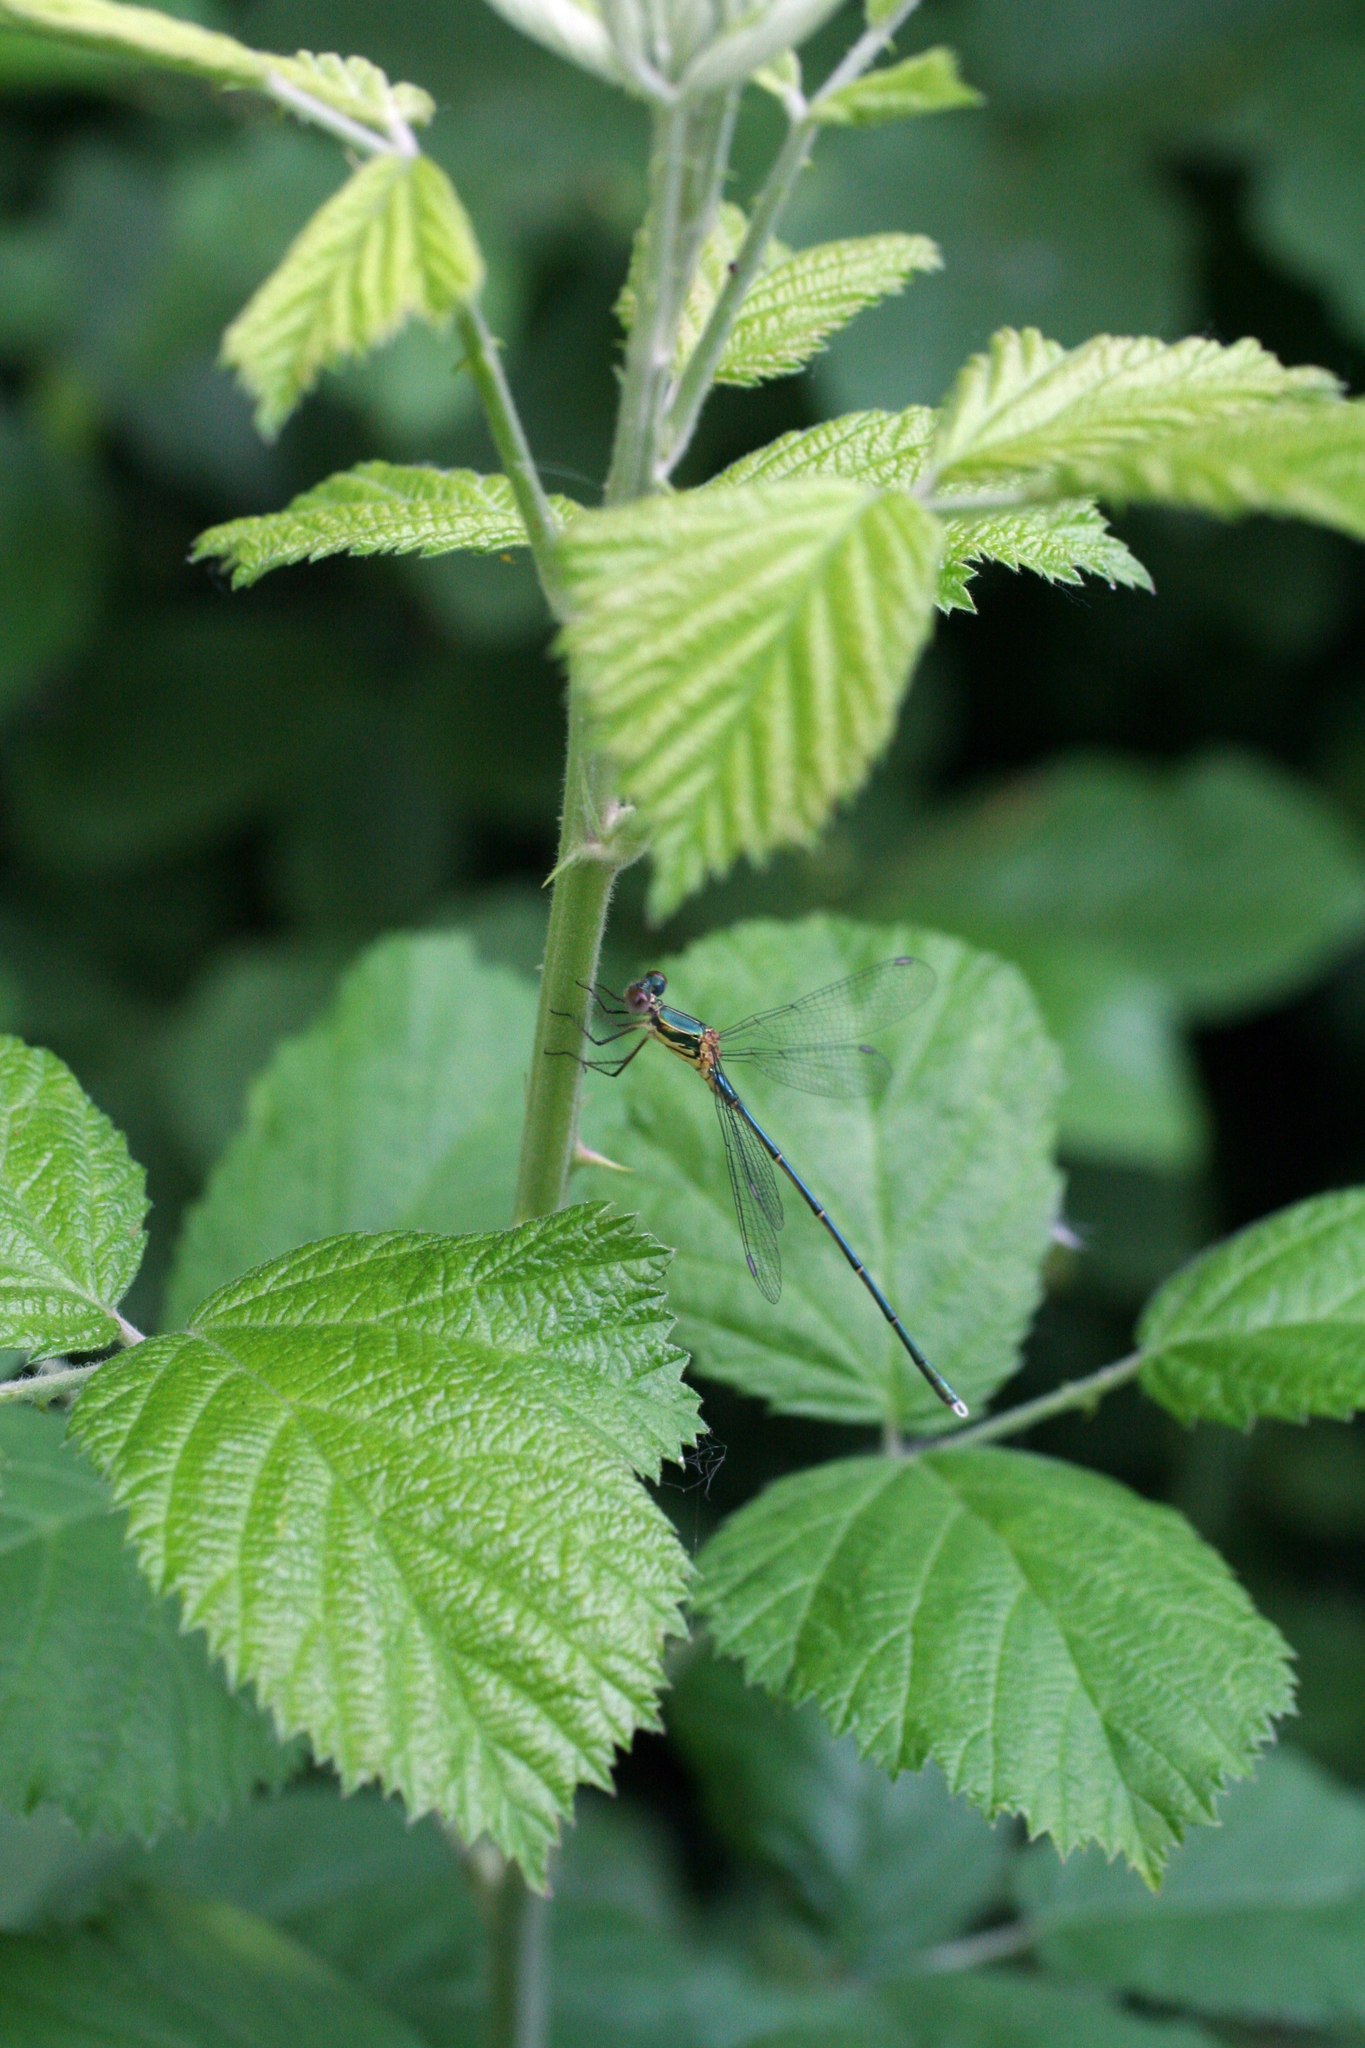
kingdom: Animalia
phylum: Arthropoda
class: Insecta
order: Odonata
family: Lestidae
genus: Chalcolestes
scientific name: Chalcolestes parvidens
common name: Eastern willow spreadwing
